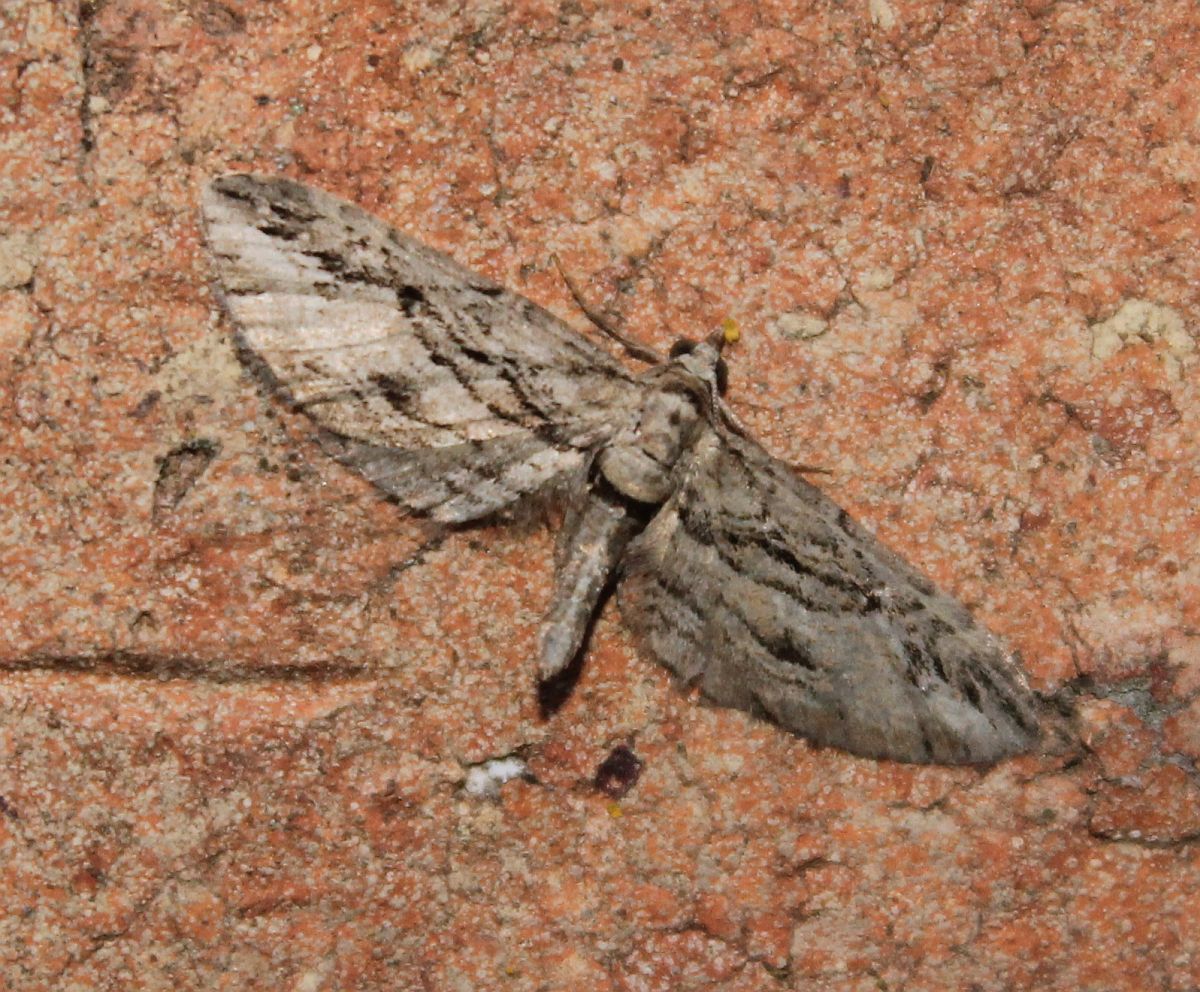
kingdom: Animalia
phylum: Arthropoda
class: Insecta
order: Lepidoptera
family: Geometridae
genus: Eupithecia
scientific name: Eupithecia phoeniceata
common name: Cypress pug
